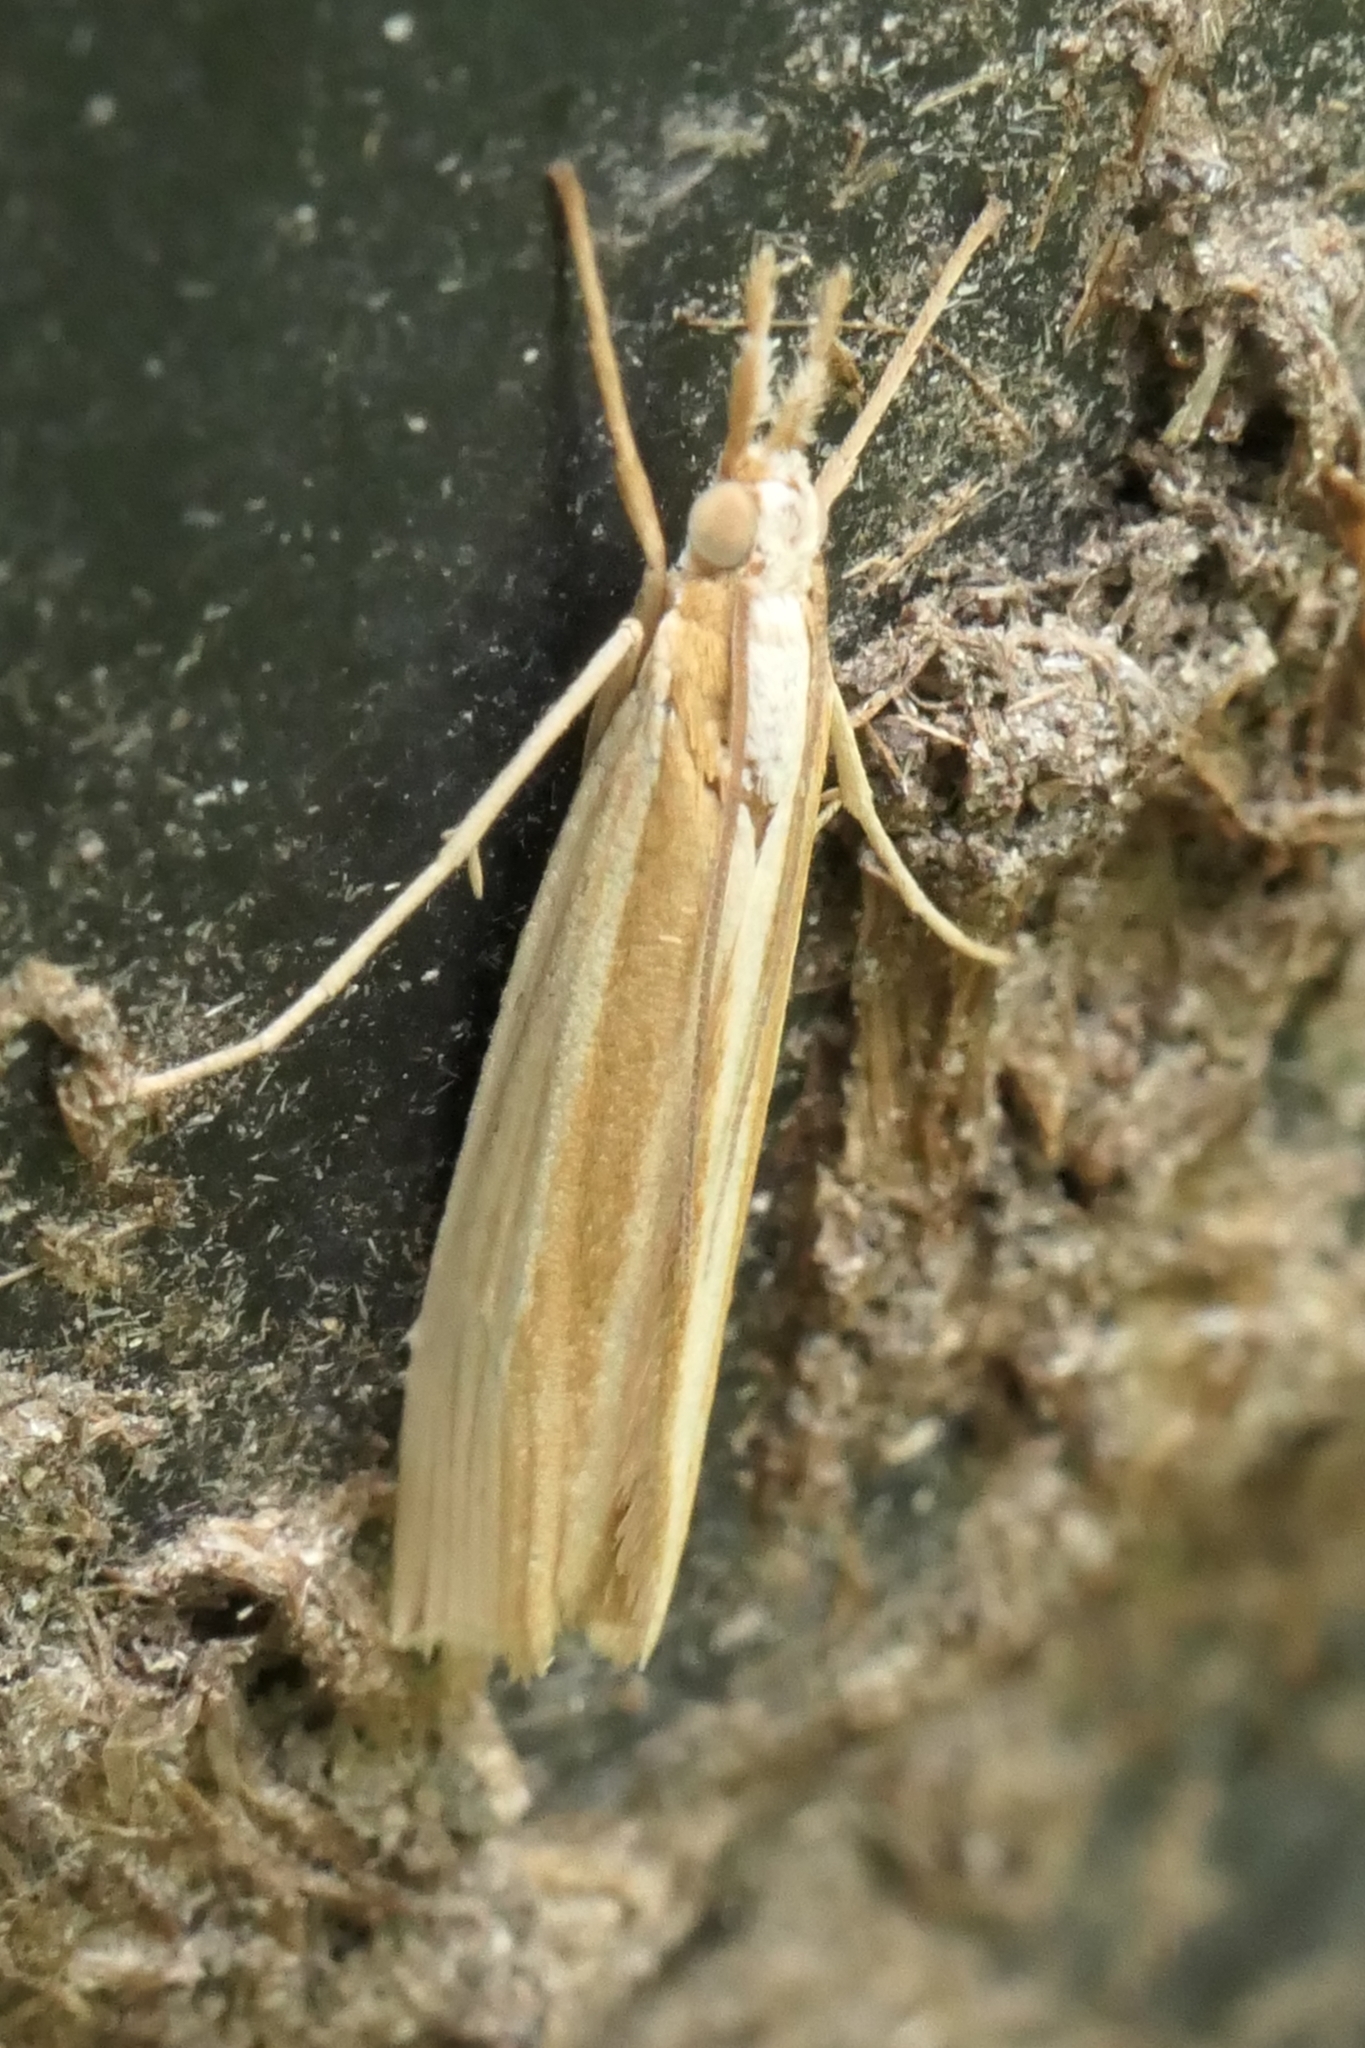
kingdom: Animalia
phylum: Arthropoda
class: Insecta
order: Lepidoptera
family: Crambidae
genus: Orocrambus
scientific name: Orocrambus angustipennis
